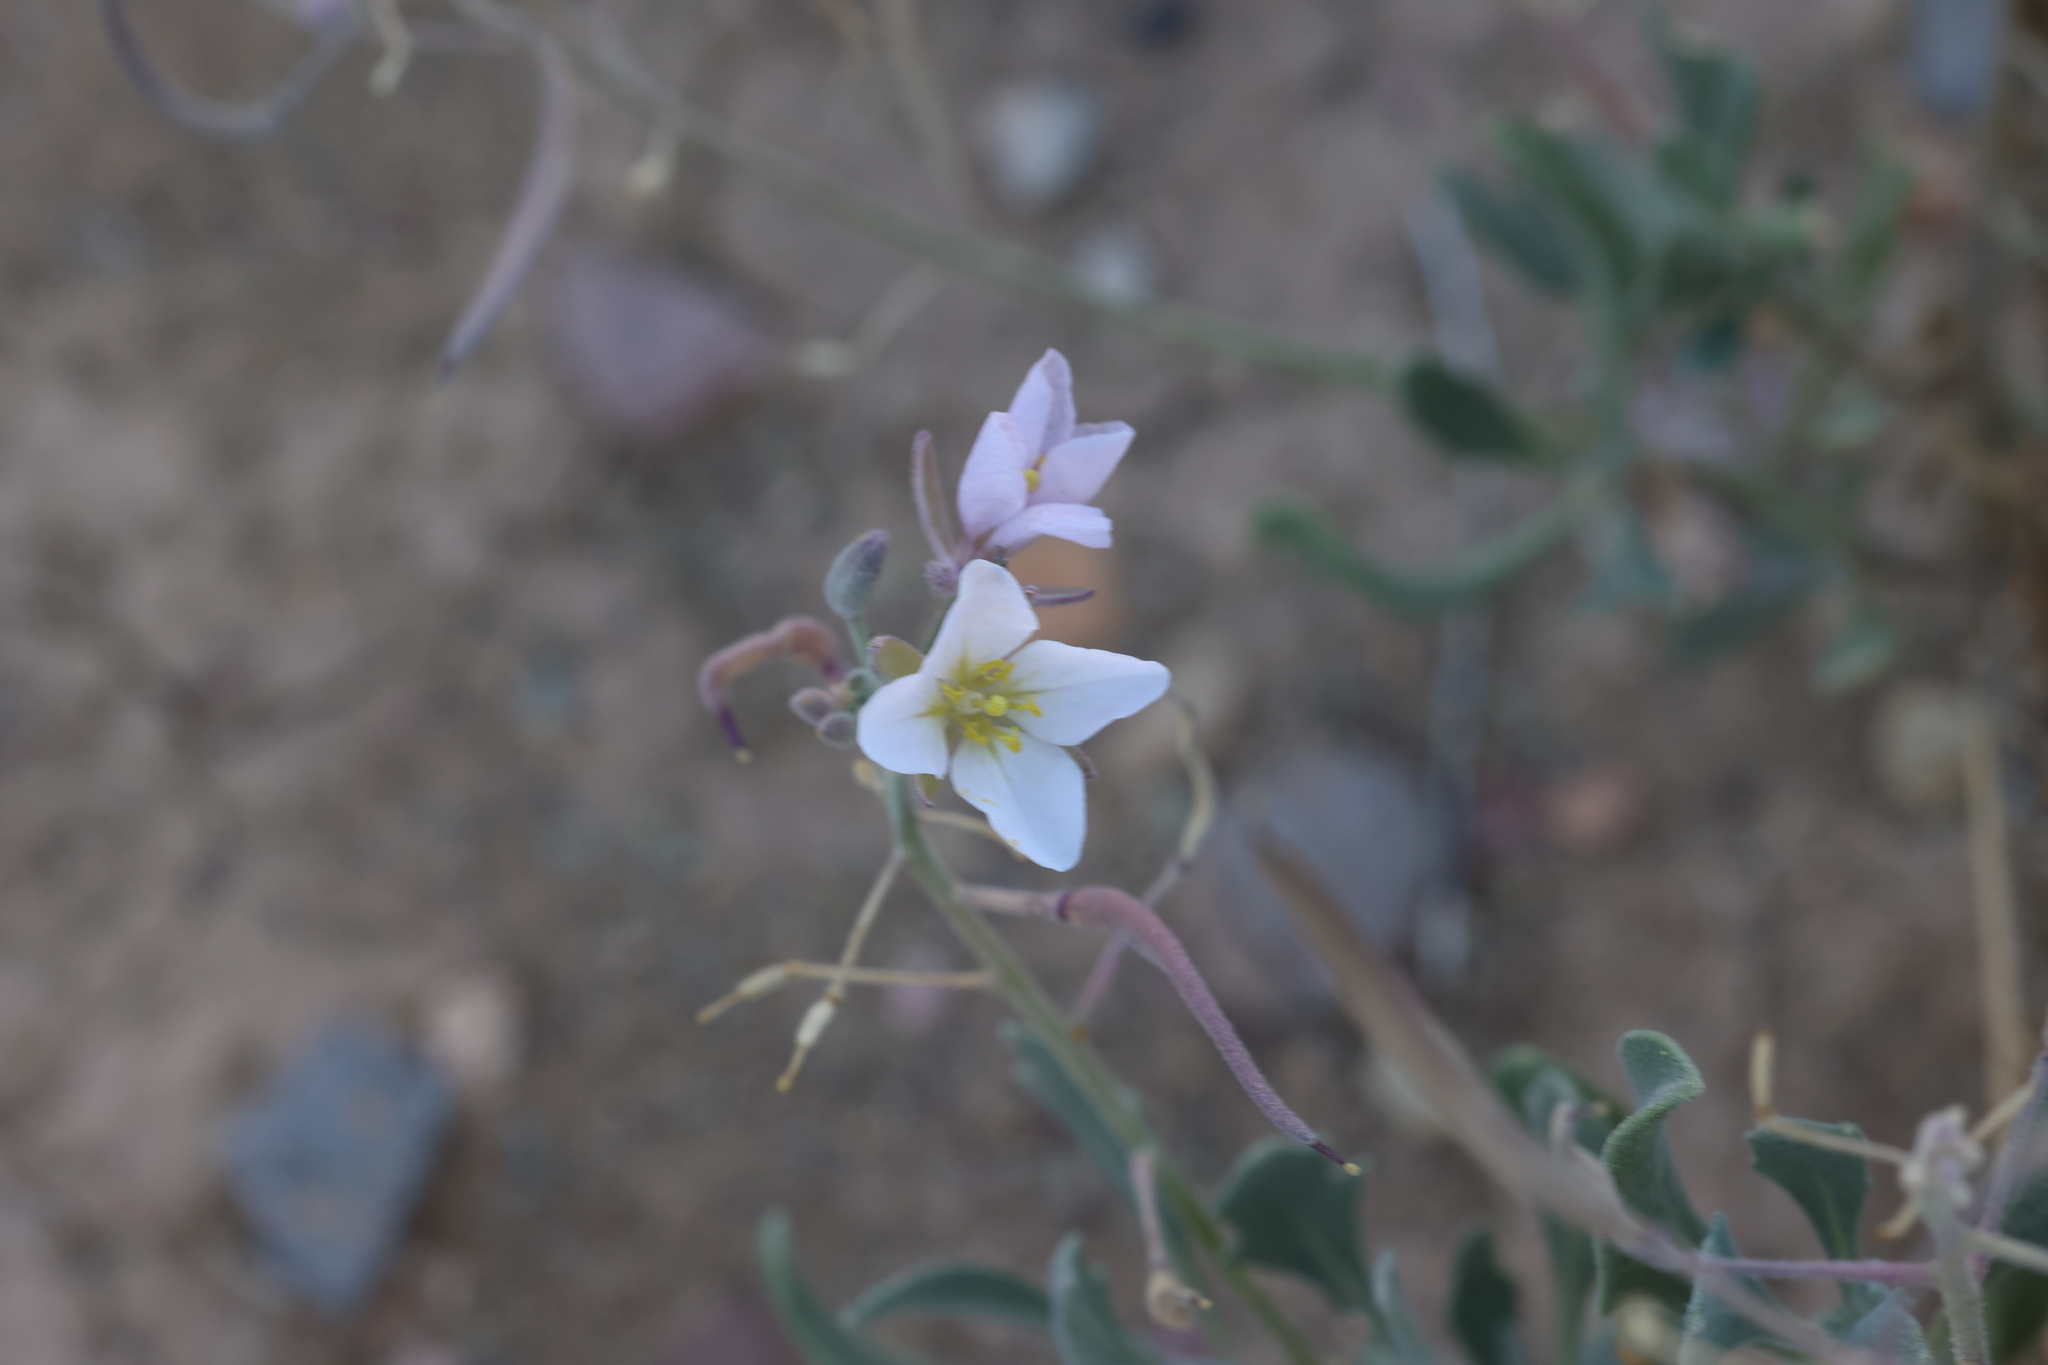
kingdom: Plantae
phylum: Tracheophyta
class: Magnoliopsida
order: Brassicales
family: Brassicaceae
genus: Nerisyrenia
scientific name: Nerisyrenia camporum
